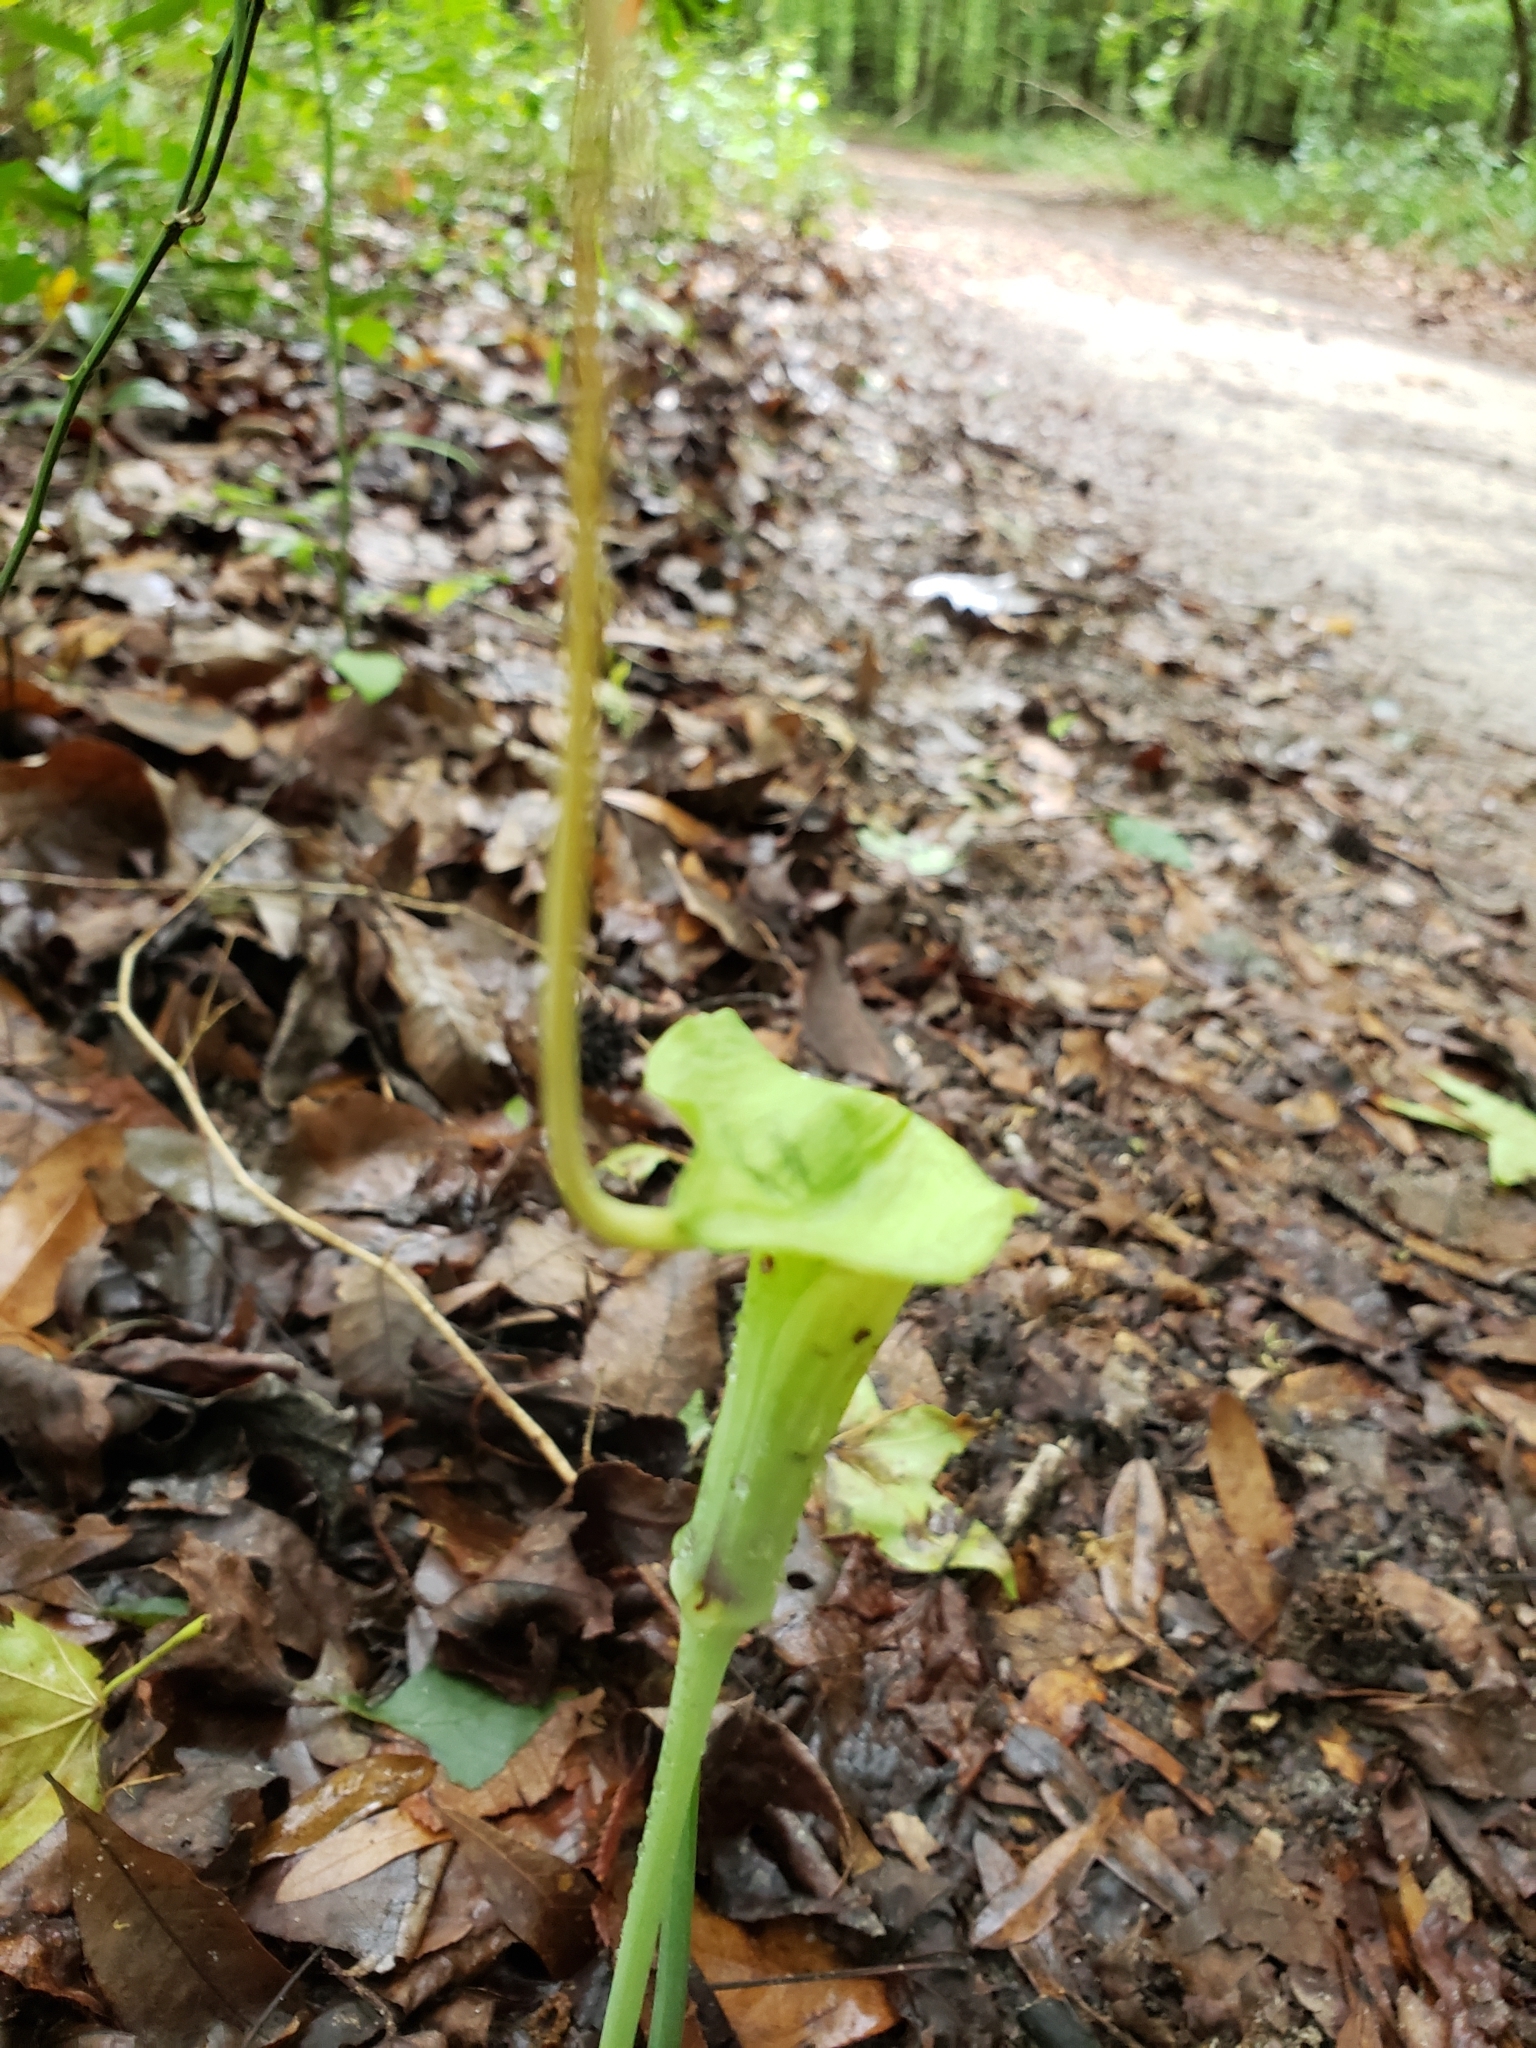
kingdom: Plantae
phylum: Tracheophyta
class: Liliopsida
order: Alismatales
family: Araceae
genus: Arisaema
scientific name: Arisaema dracontium
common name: Dragon-arum
